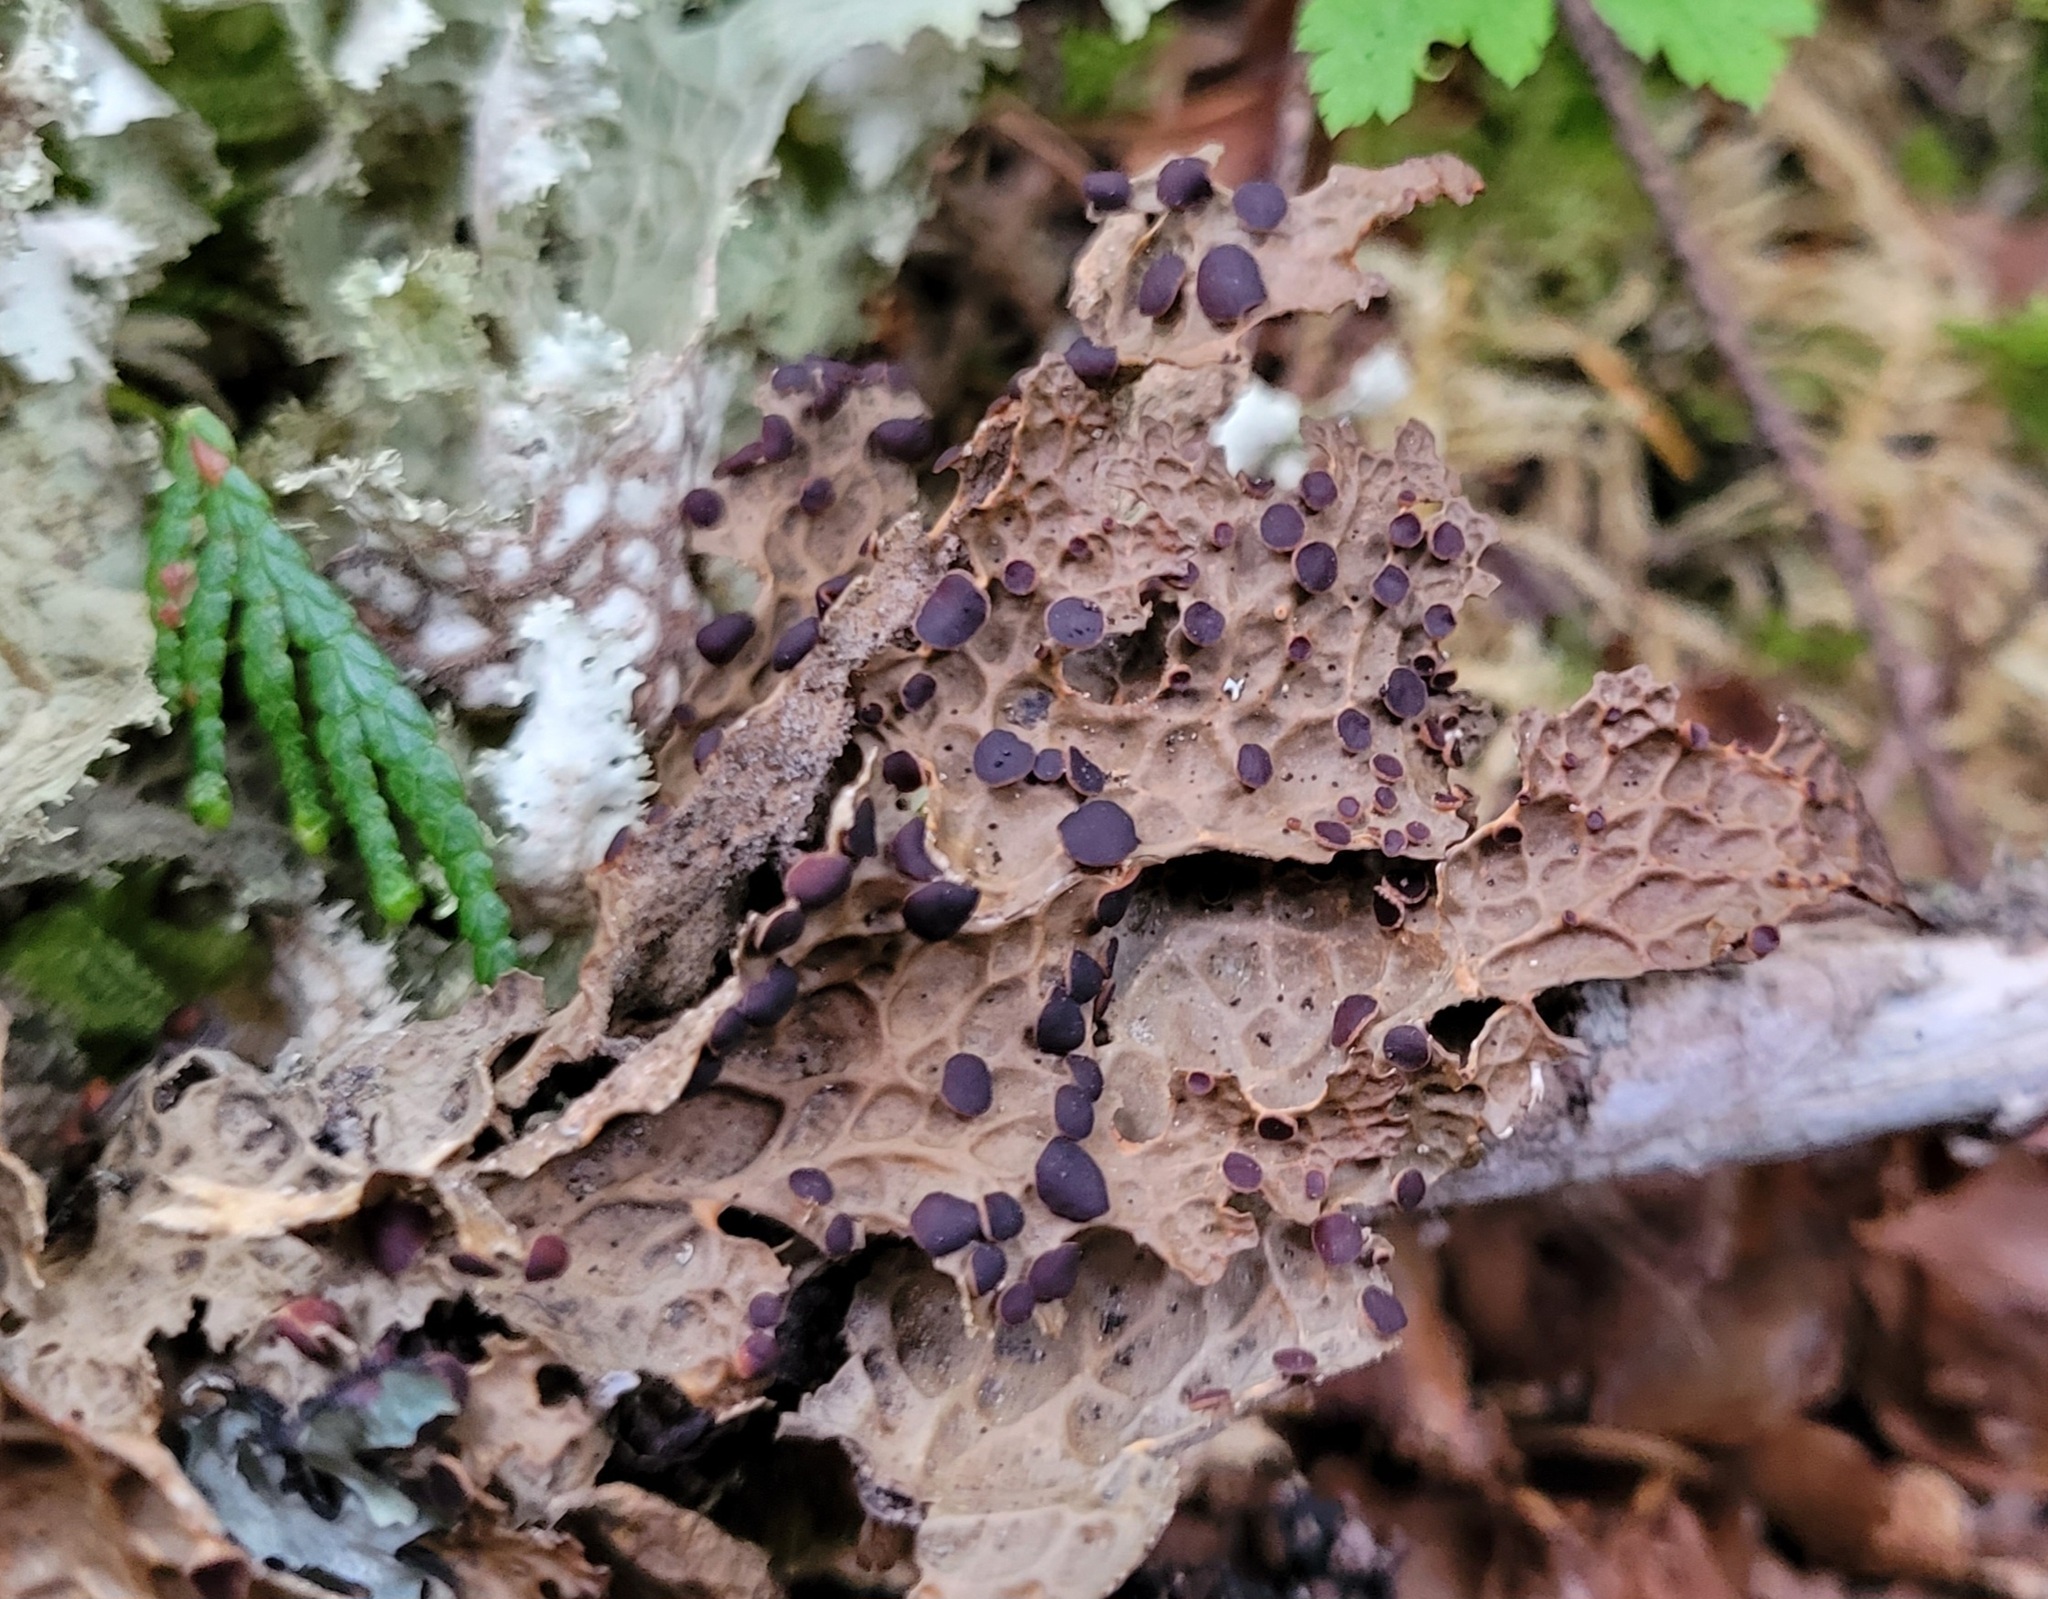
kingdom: Fungi
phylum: Ascomycota
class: Lecanoromycetes
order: Peltigerales
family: Lobariaceae
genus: Lobaria
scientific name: Lobaria anthraspis
